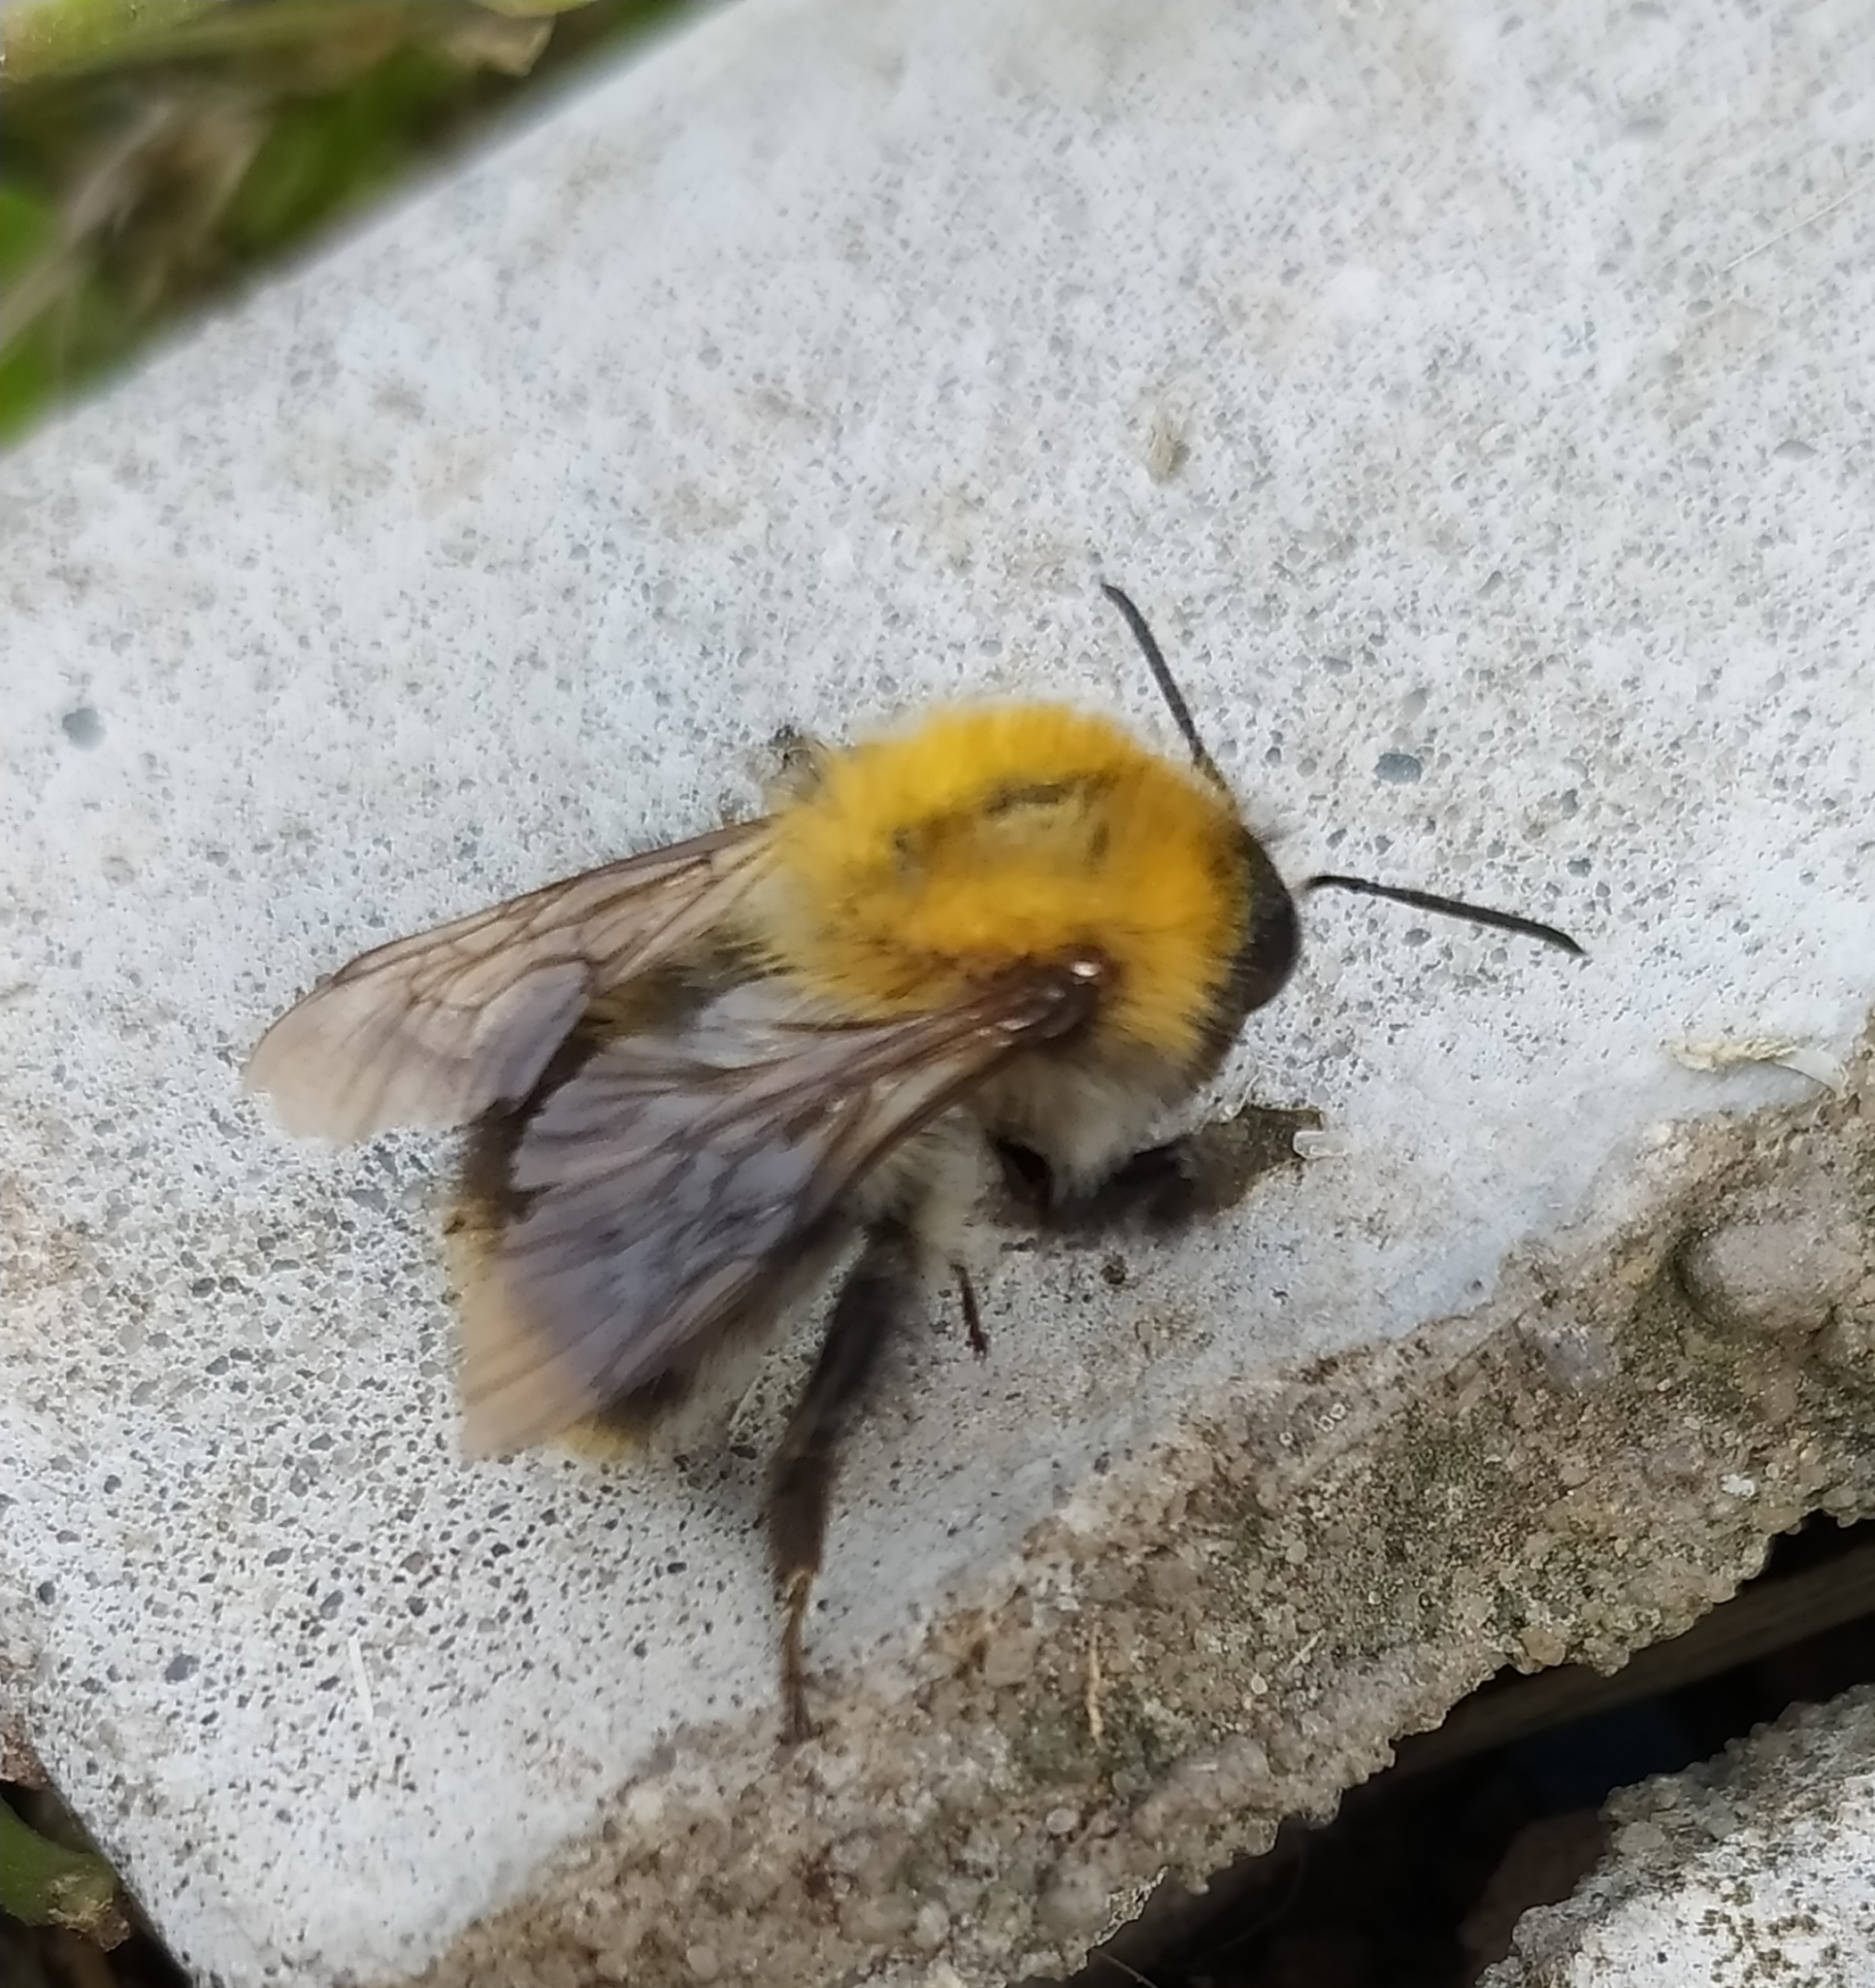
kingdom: Animalia
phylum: Arthropoda
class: Insecta
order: Hymenoptera
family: Apidae
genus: Bombus
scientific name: Bombus pascuorum
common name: Common carder bee
